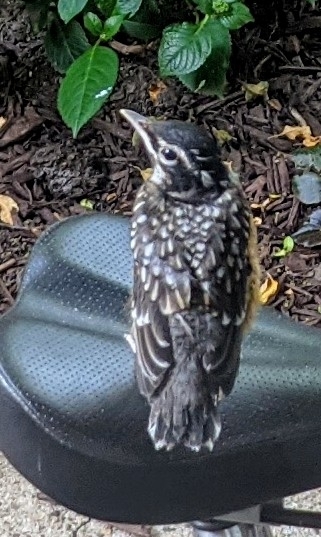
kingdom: Animalia
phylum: Chordata
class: Aves
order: Passeriformes
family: Turdidae
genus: Turdus
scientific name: Turdus migratorius
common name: American robin
